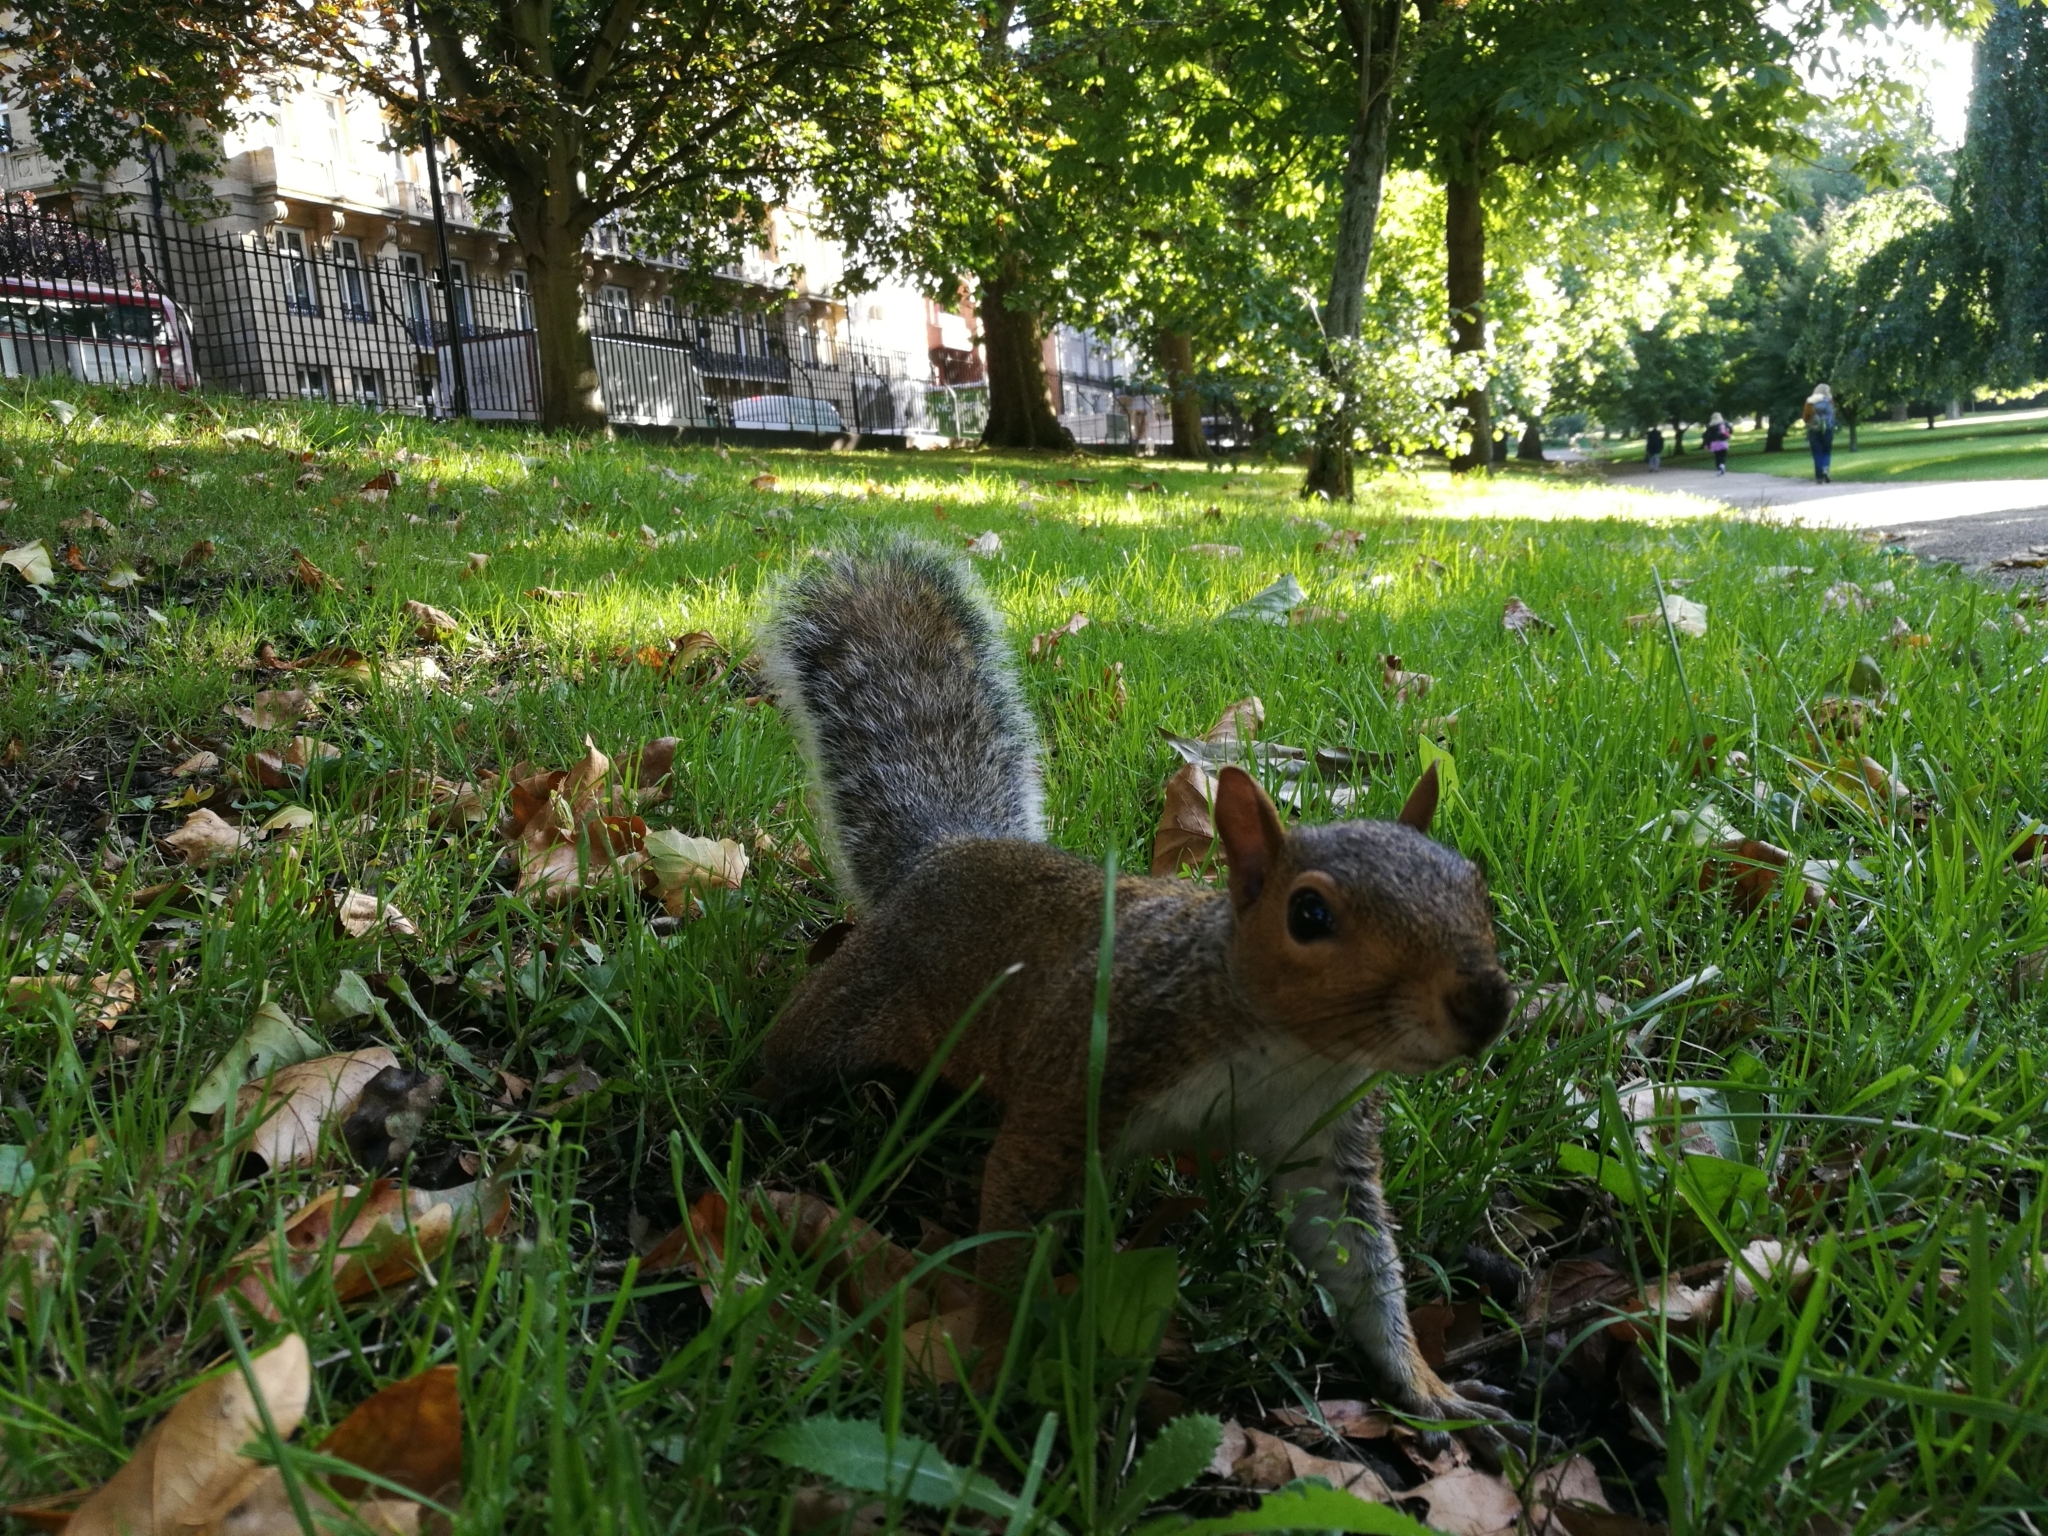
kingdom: Animalia
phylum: Chordata
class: Mammalia
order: Rodentia
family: Sciuridae
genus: Sciurus
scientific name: Sciurus carolinensis
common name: Eastern gray squirrel
